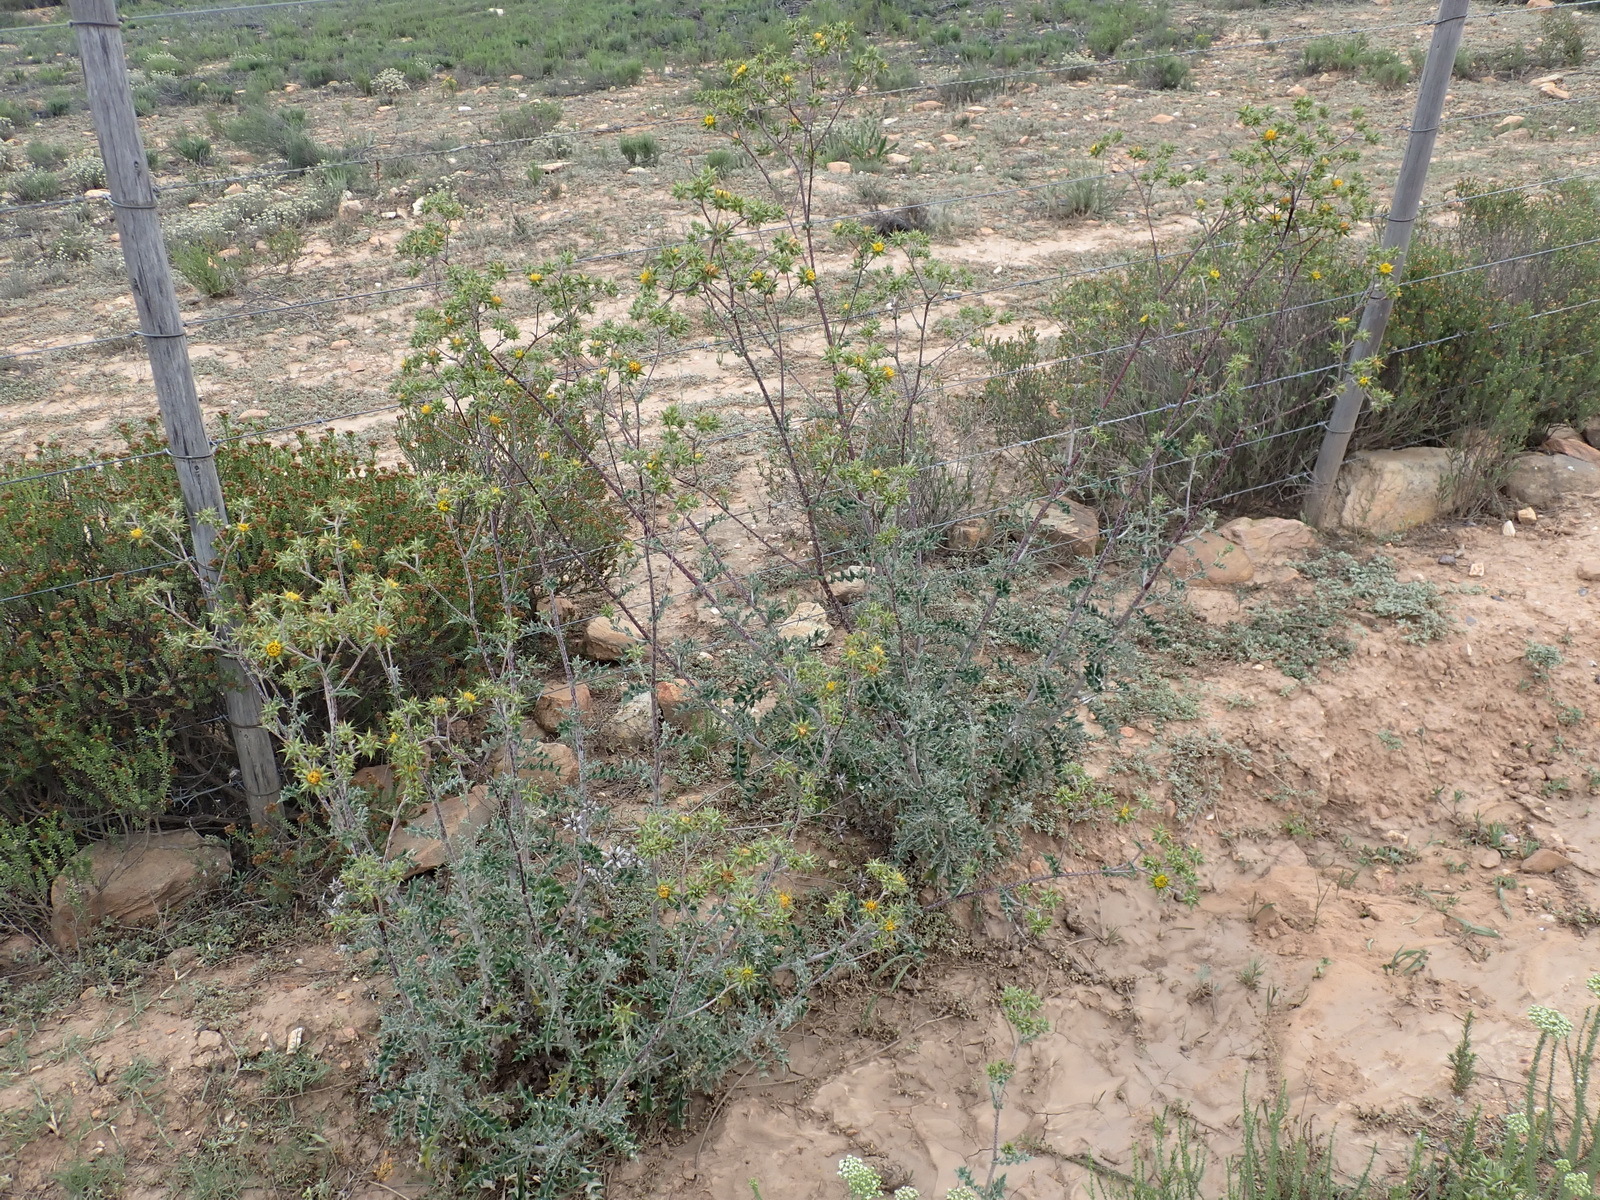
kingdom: Plantae
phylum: Tracheophyta
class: Magnoliopsida
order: Asterales
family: Asteraceae
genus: Berkheya
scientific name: Berkheya rigida
